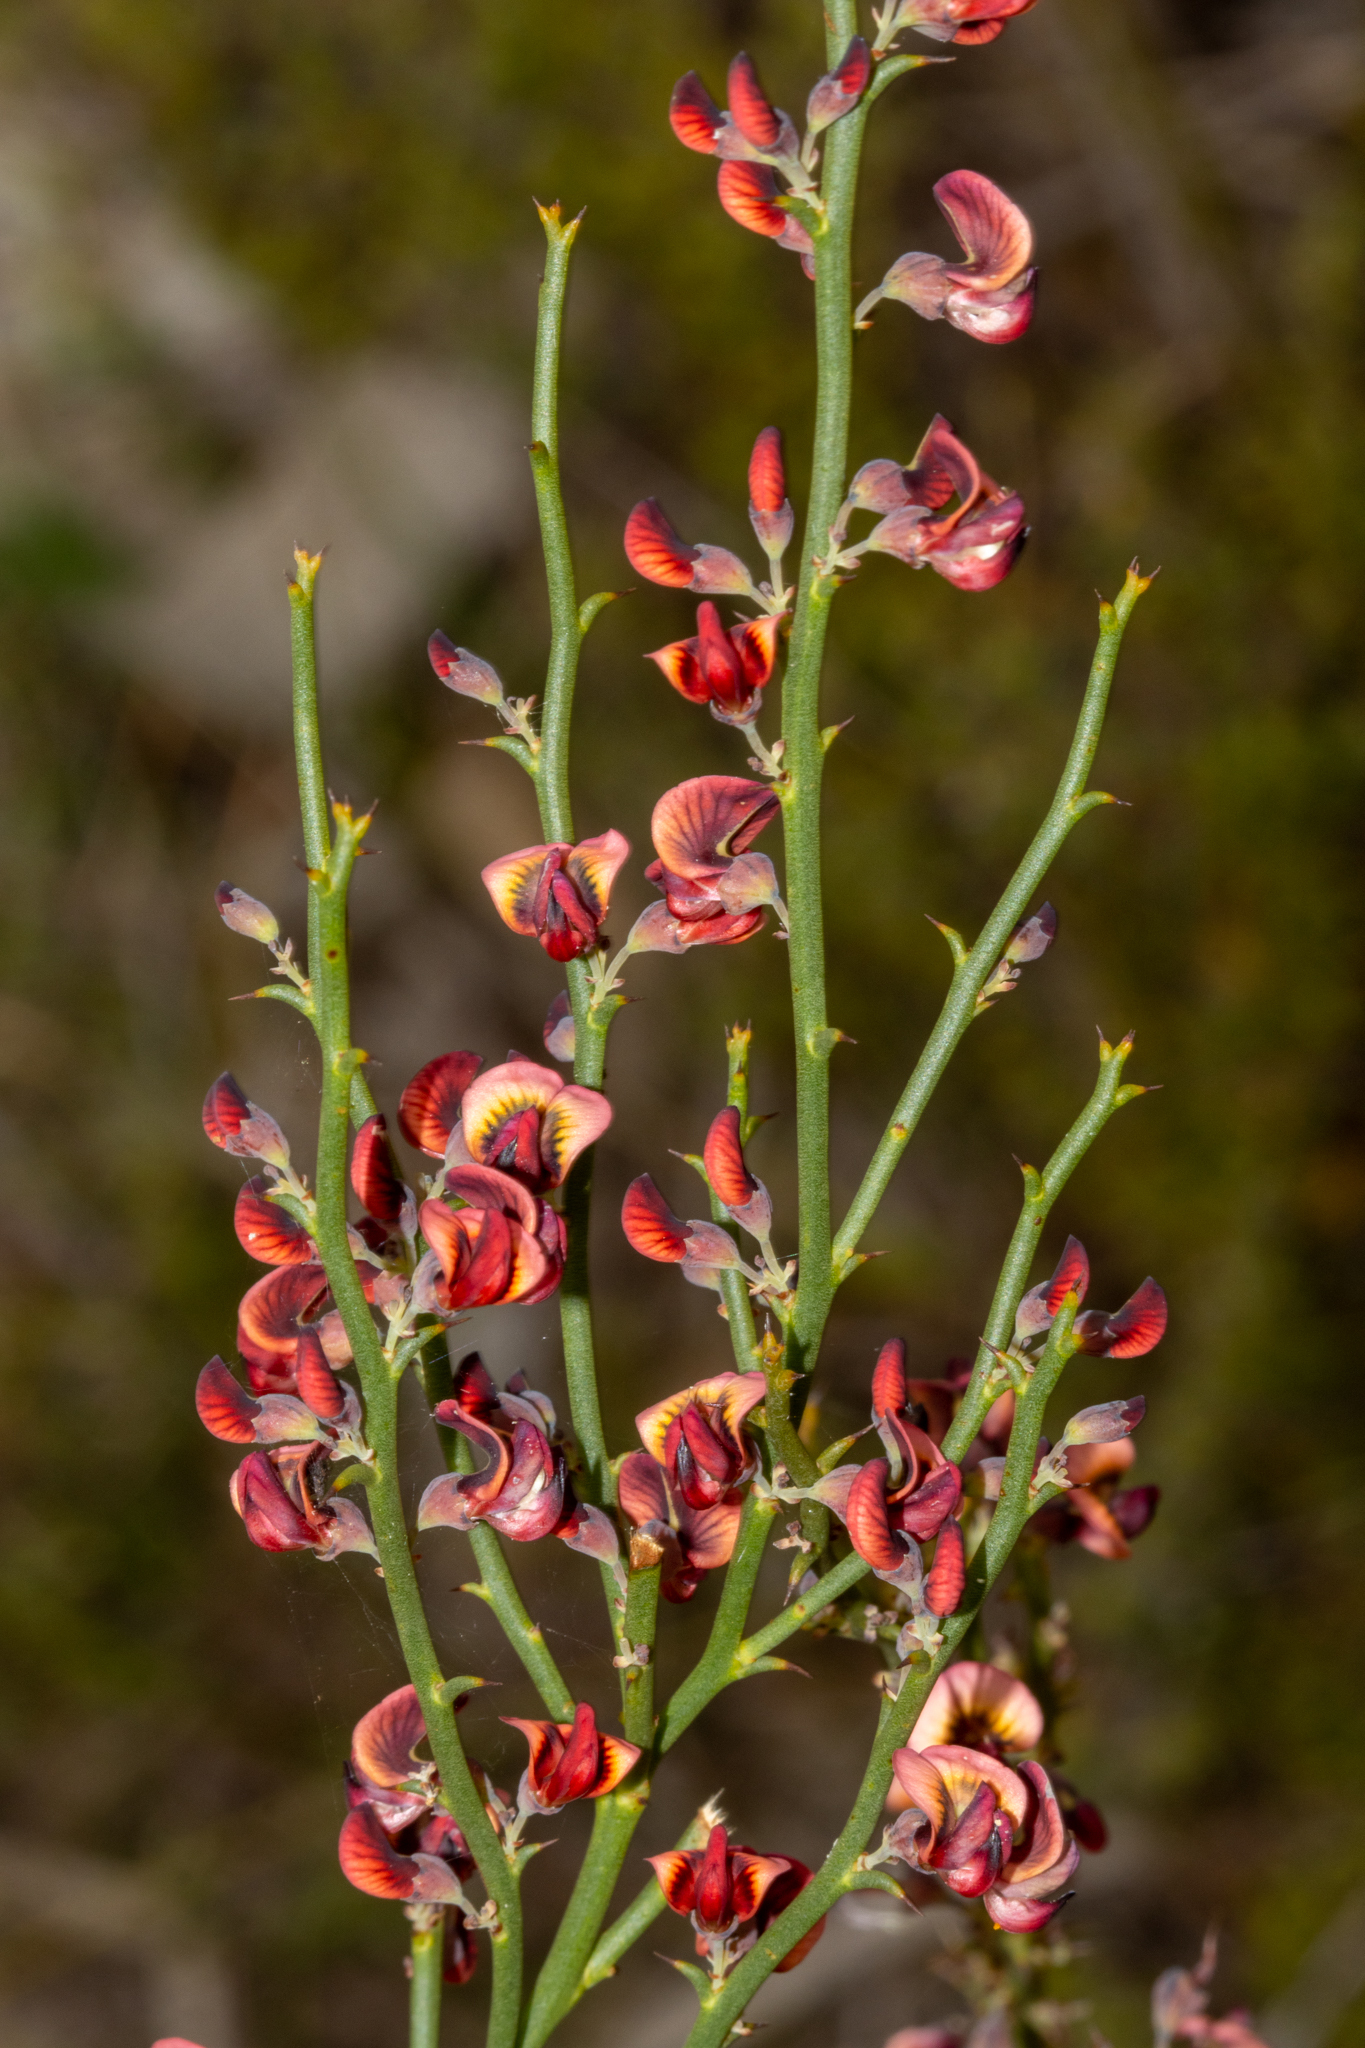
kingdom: Plantae
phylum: Tracheophyta
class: Magnoliopsida
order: Fabales
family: Fabaceae
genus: Daviesia
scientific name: Daviesia brevifolia
